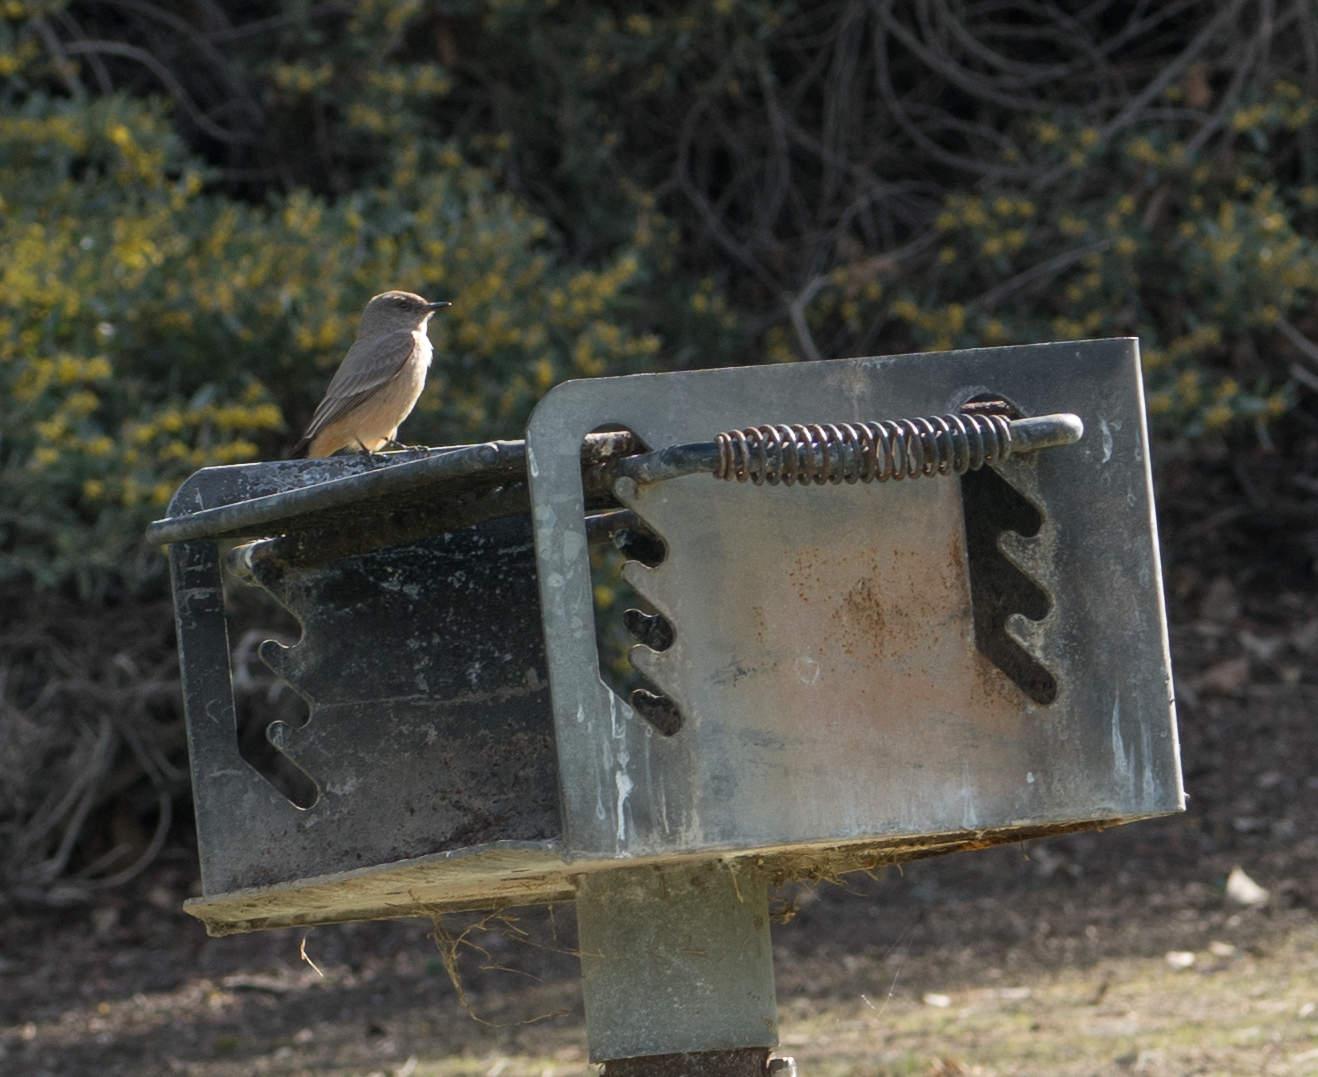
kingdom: Animalia
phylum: Chordata
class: Aves
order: Passeriformes
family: Tyrannidae
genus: Sayornis
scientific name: Sayornis saya
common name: Say's phoebe
